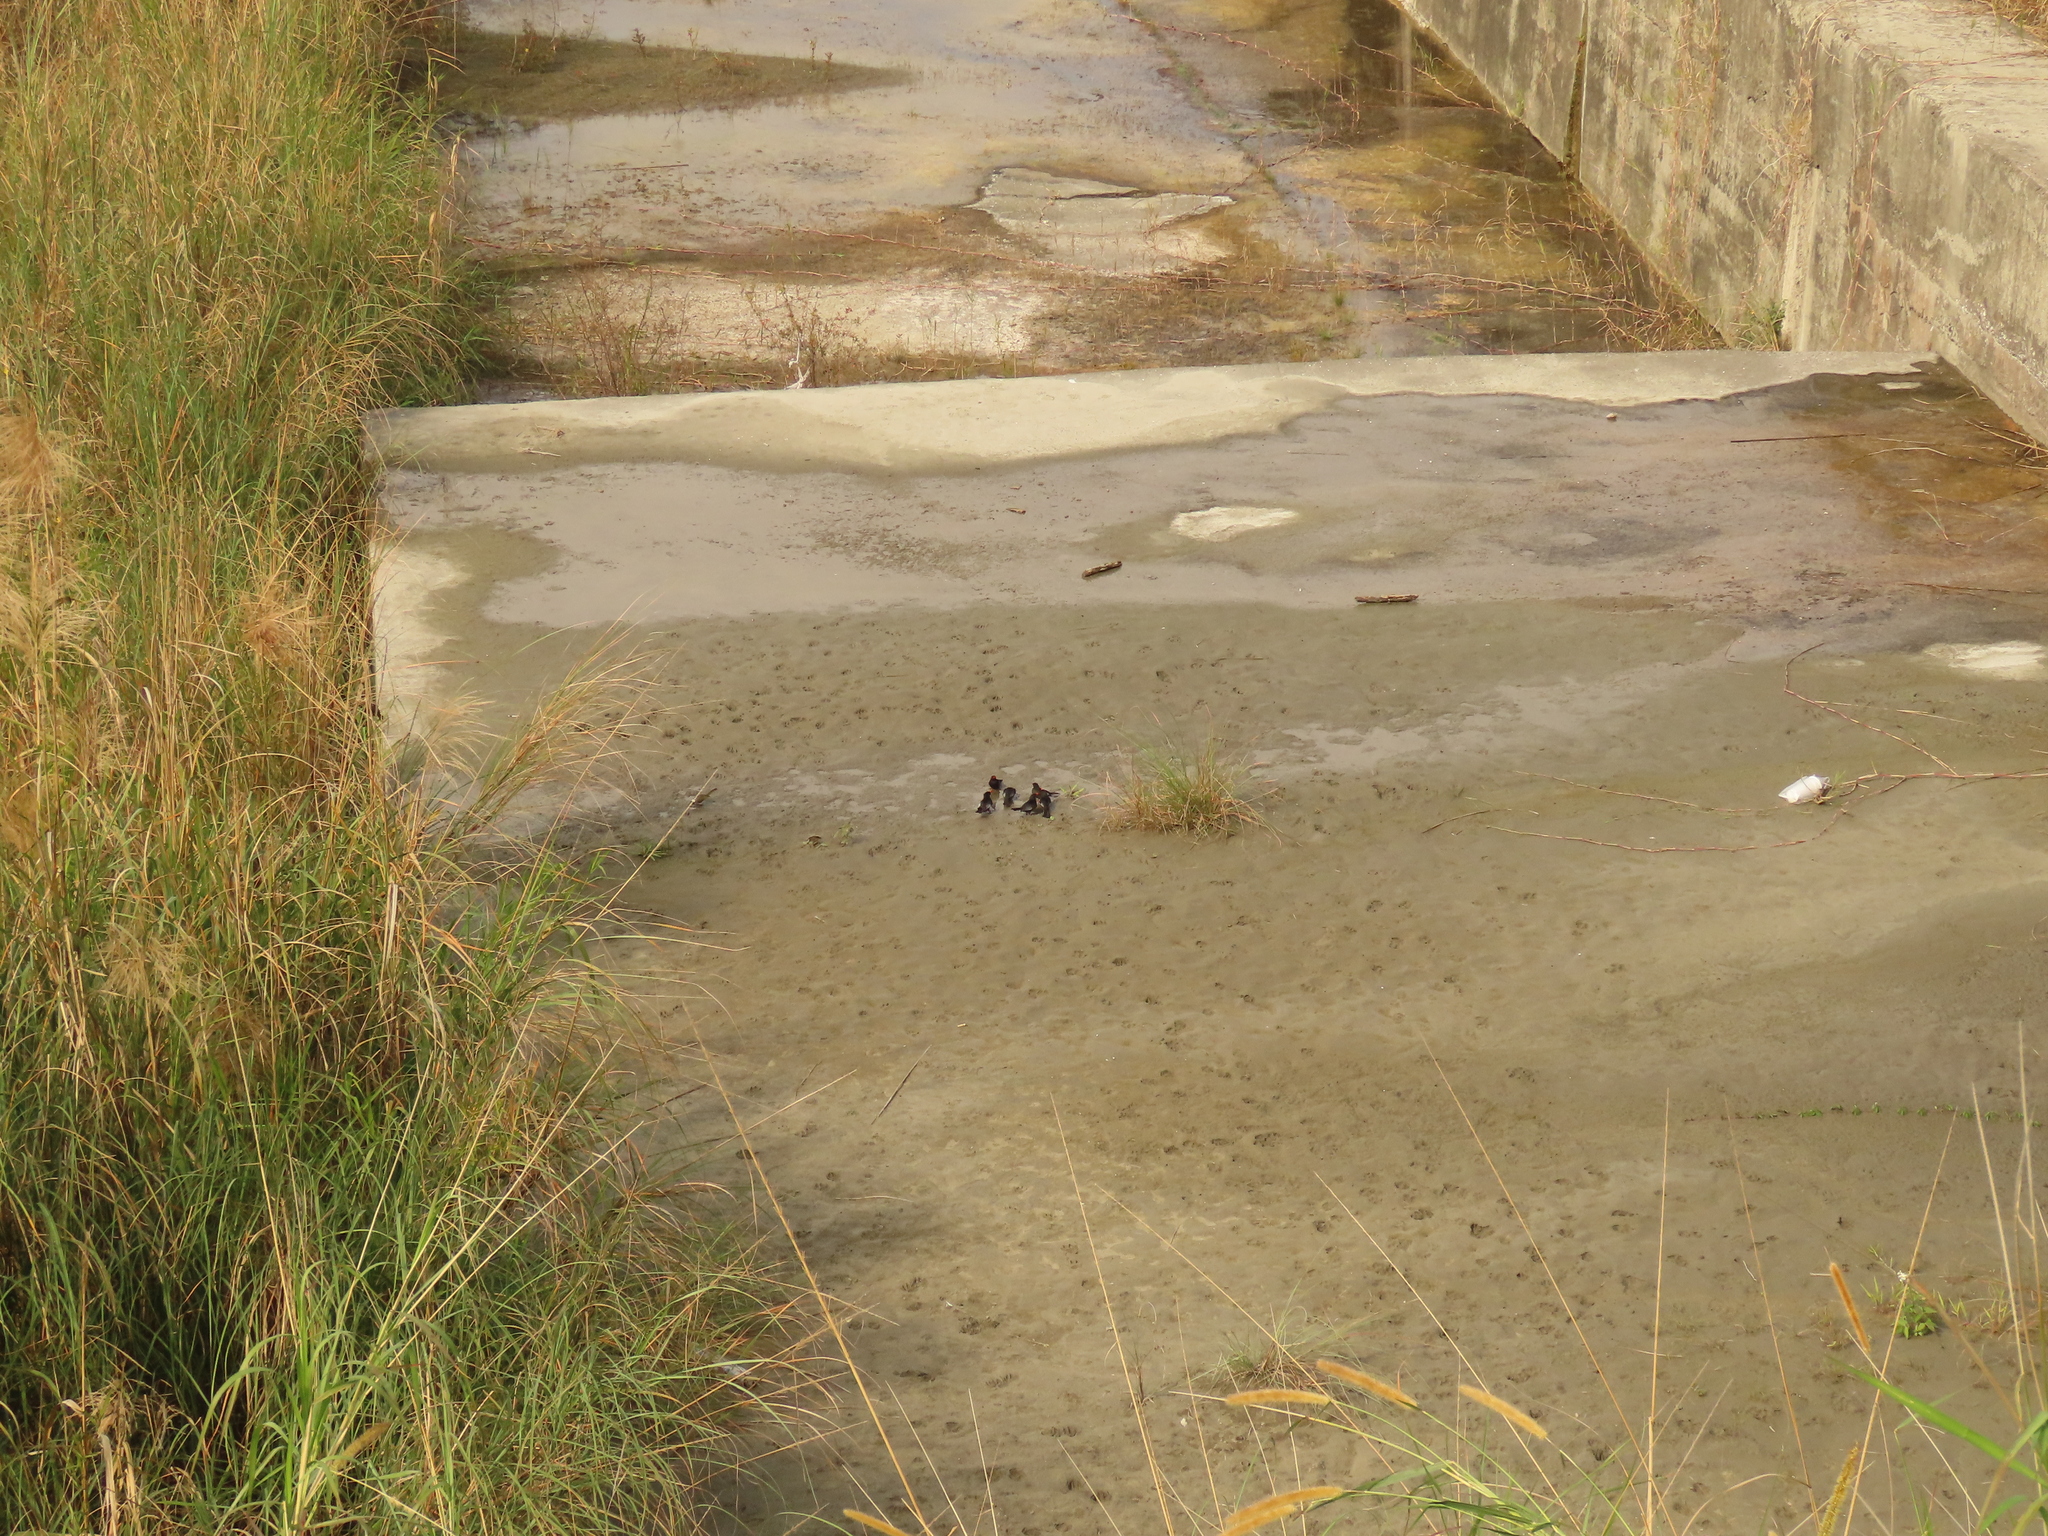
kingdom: Animalia
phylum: Chordata
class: Aves
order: Passeriformes
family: Pycnonotidae
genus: Hypsipetes
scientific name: Hypsipetes leucocephalus
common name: Black bulbul
